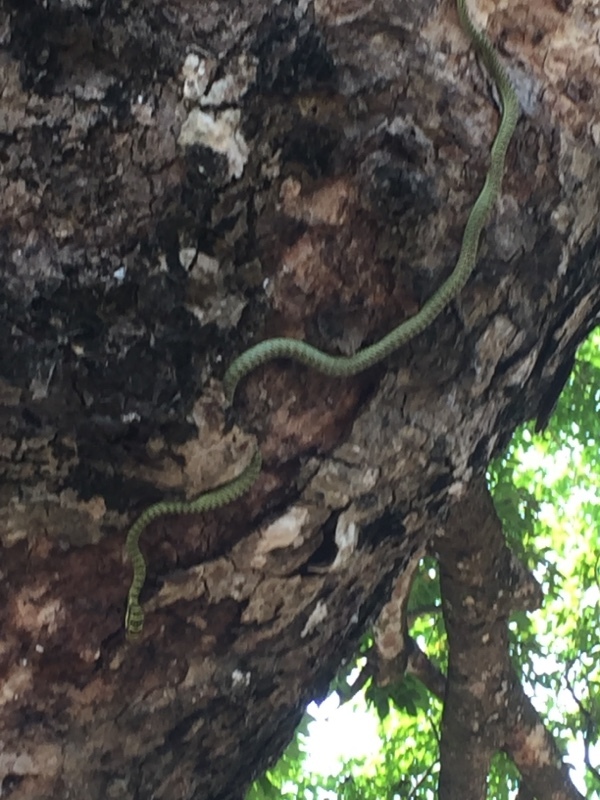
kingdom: Animalia
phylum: Chordata
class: Squamata
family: Colubridae
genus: Chrysopelea
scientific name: Chrysopelea ornata
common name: Golden flying snake
